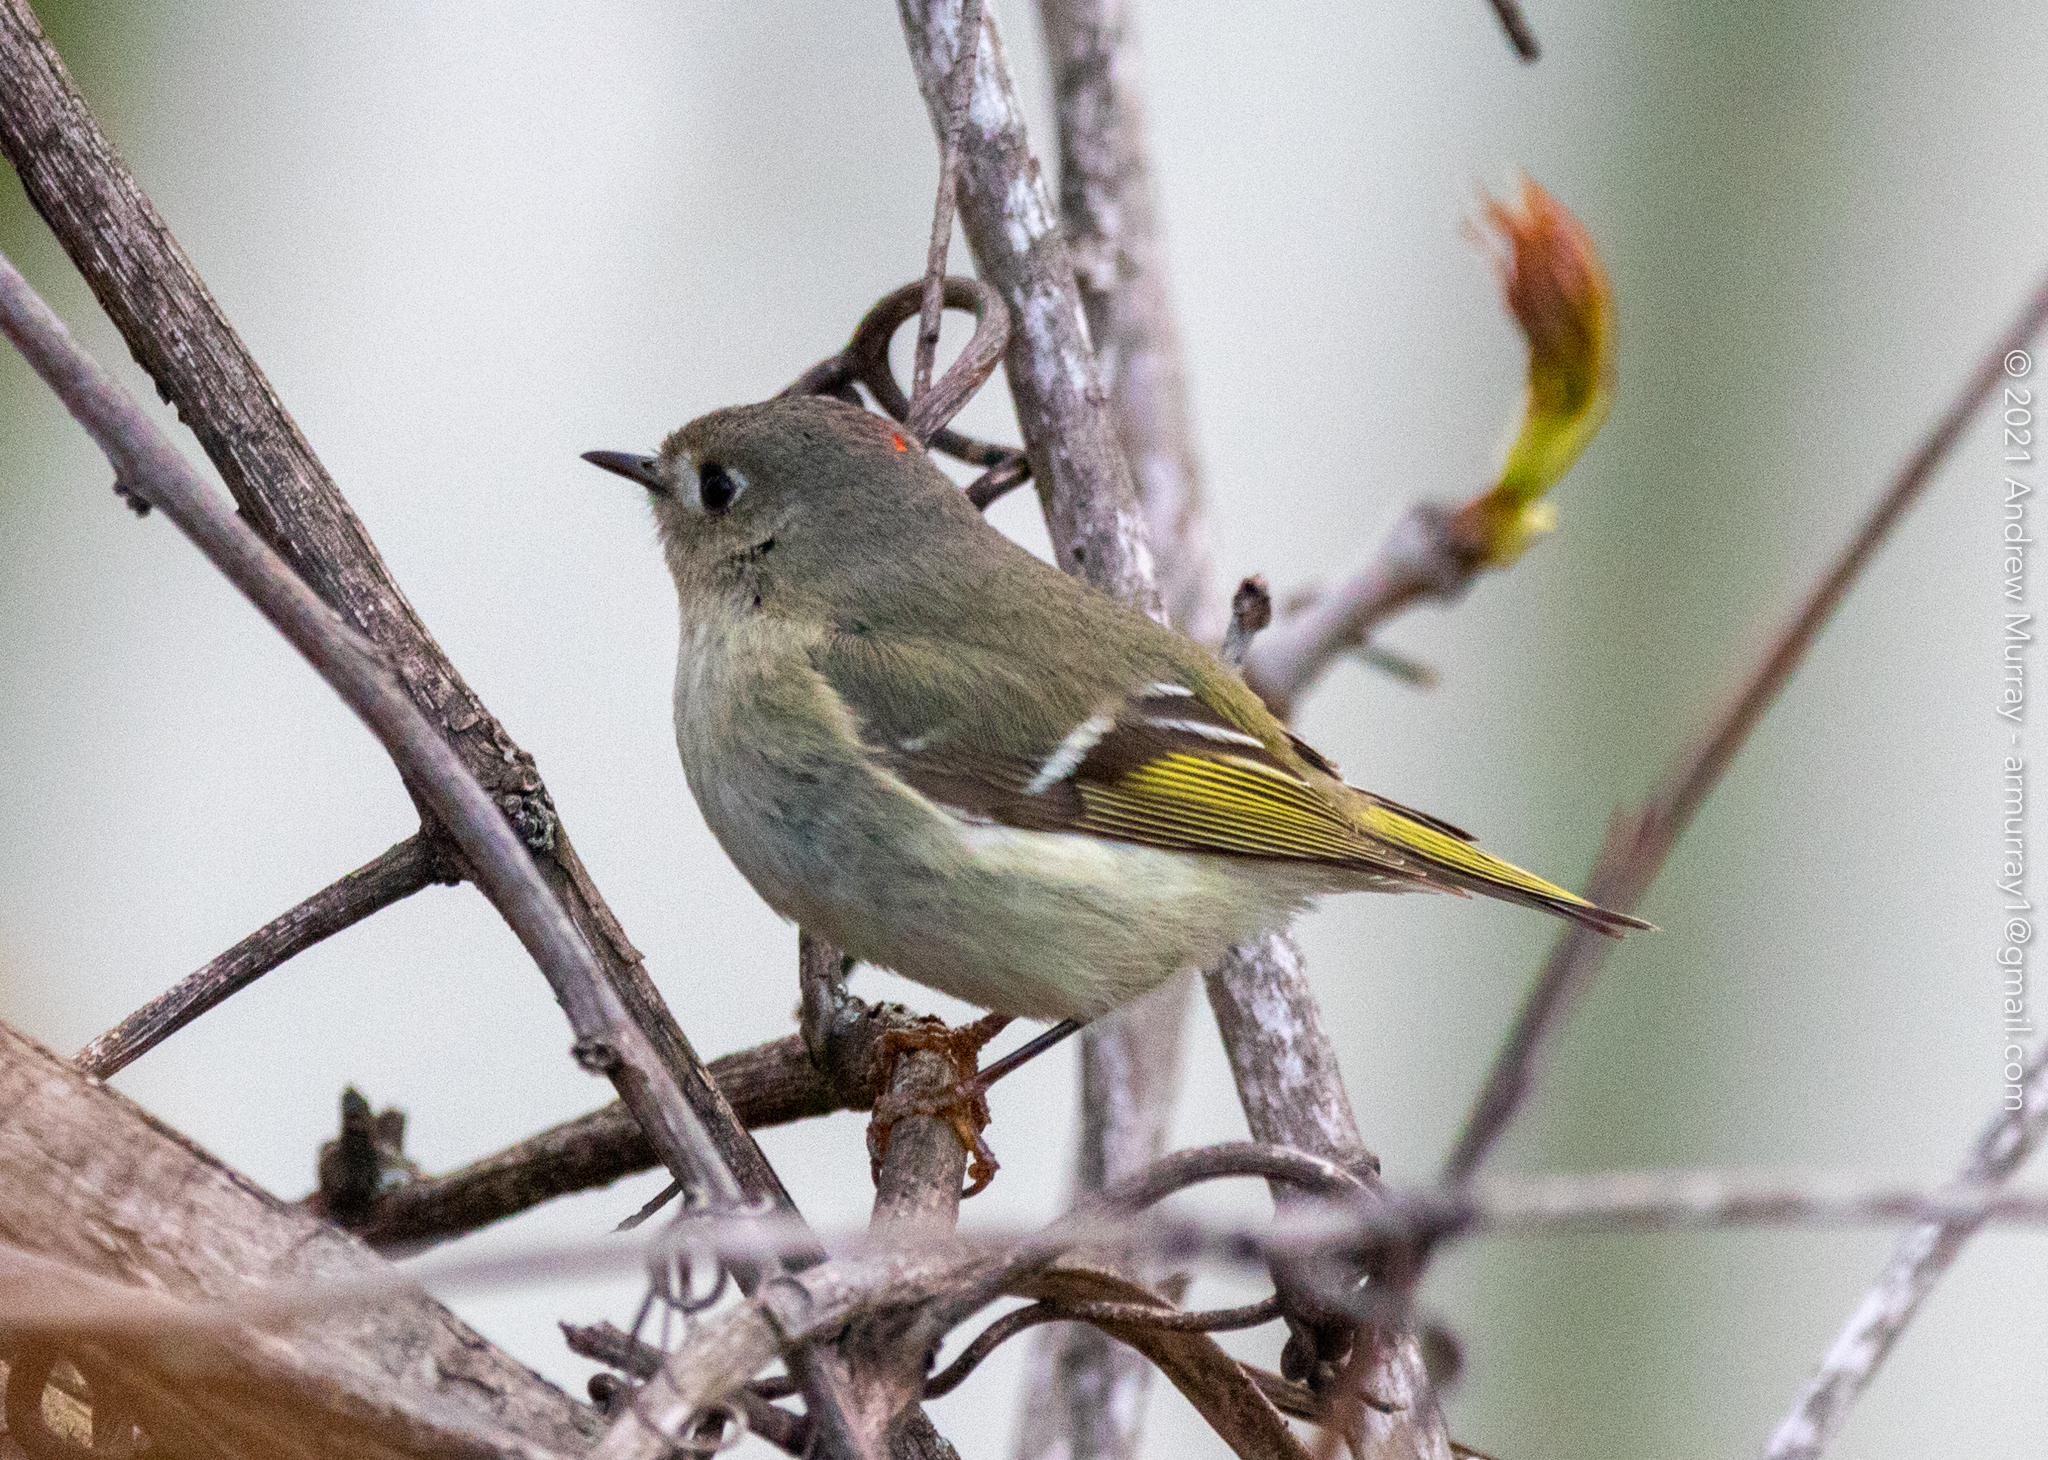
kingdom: Animalia
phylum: Chordata
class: Aves
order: Passeriformes
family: Regulidae
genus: Regulus
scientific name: Regulus calendula
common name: Ruby-crowned kinglet
